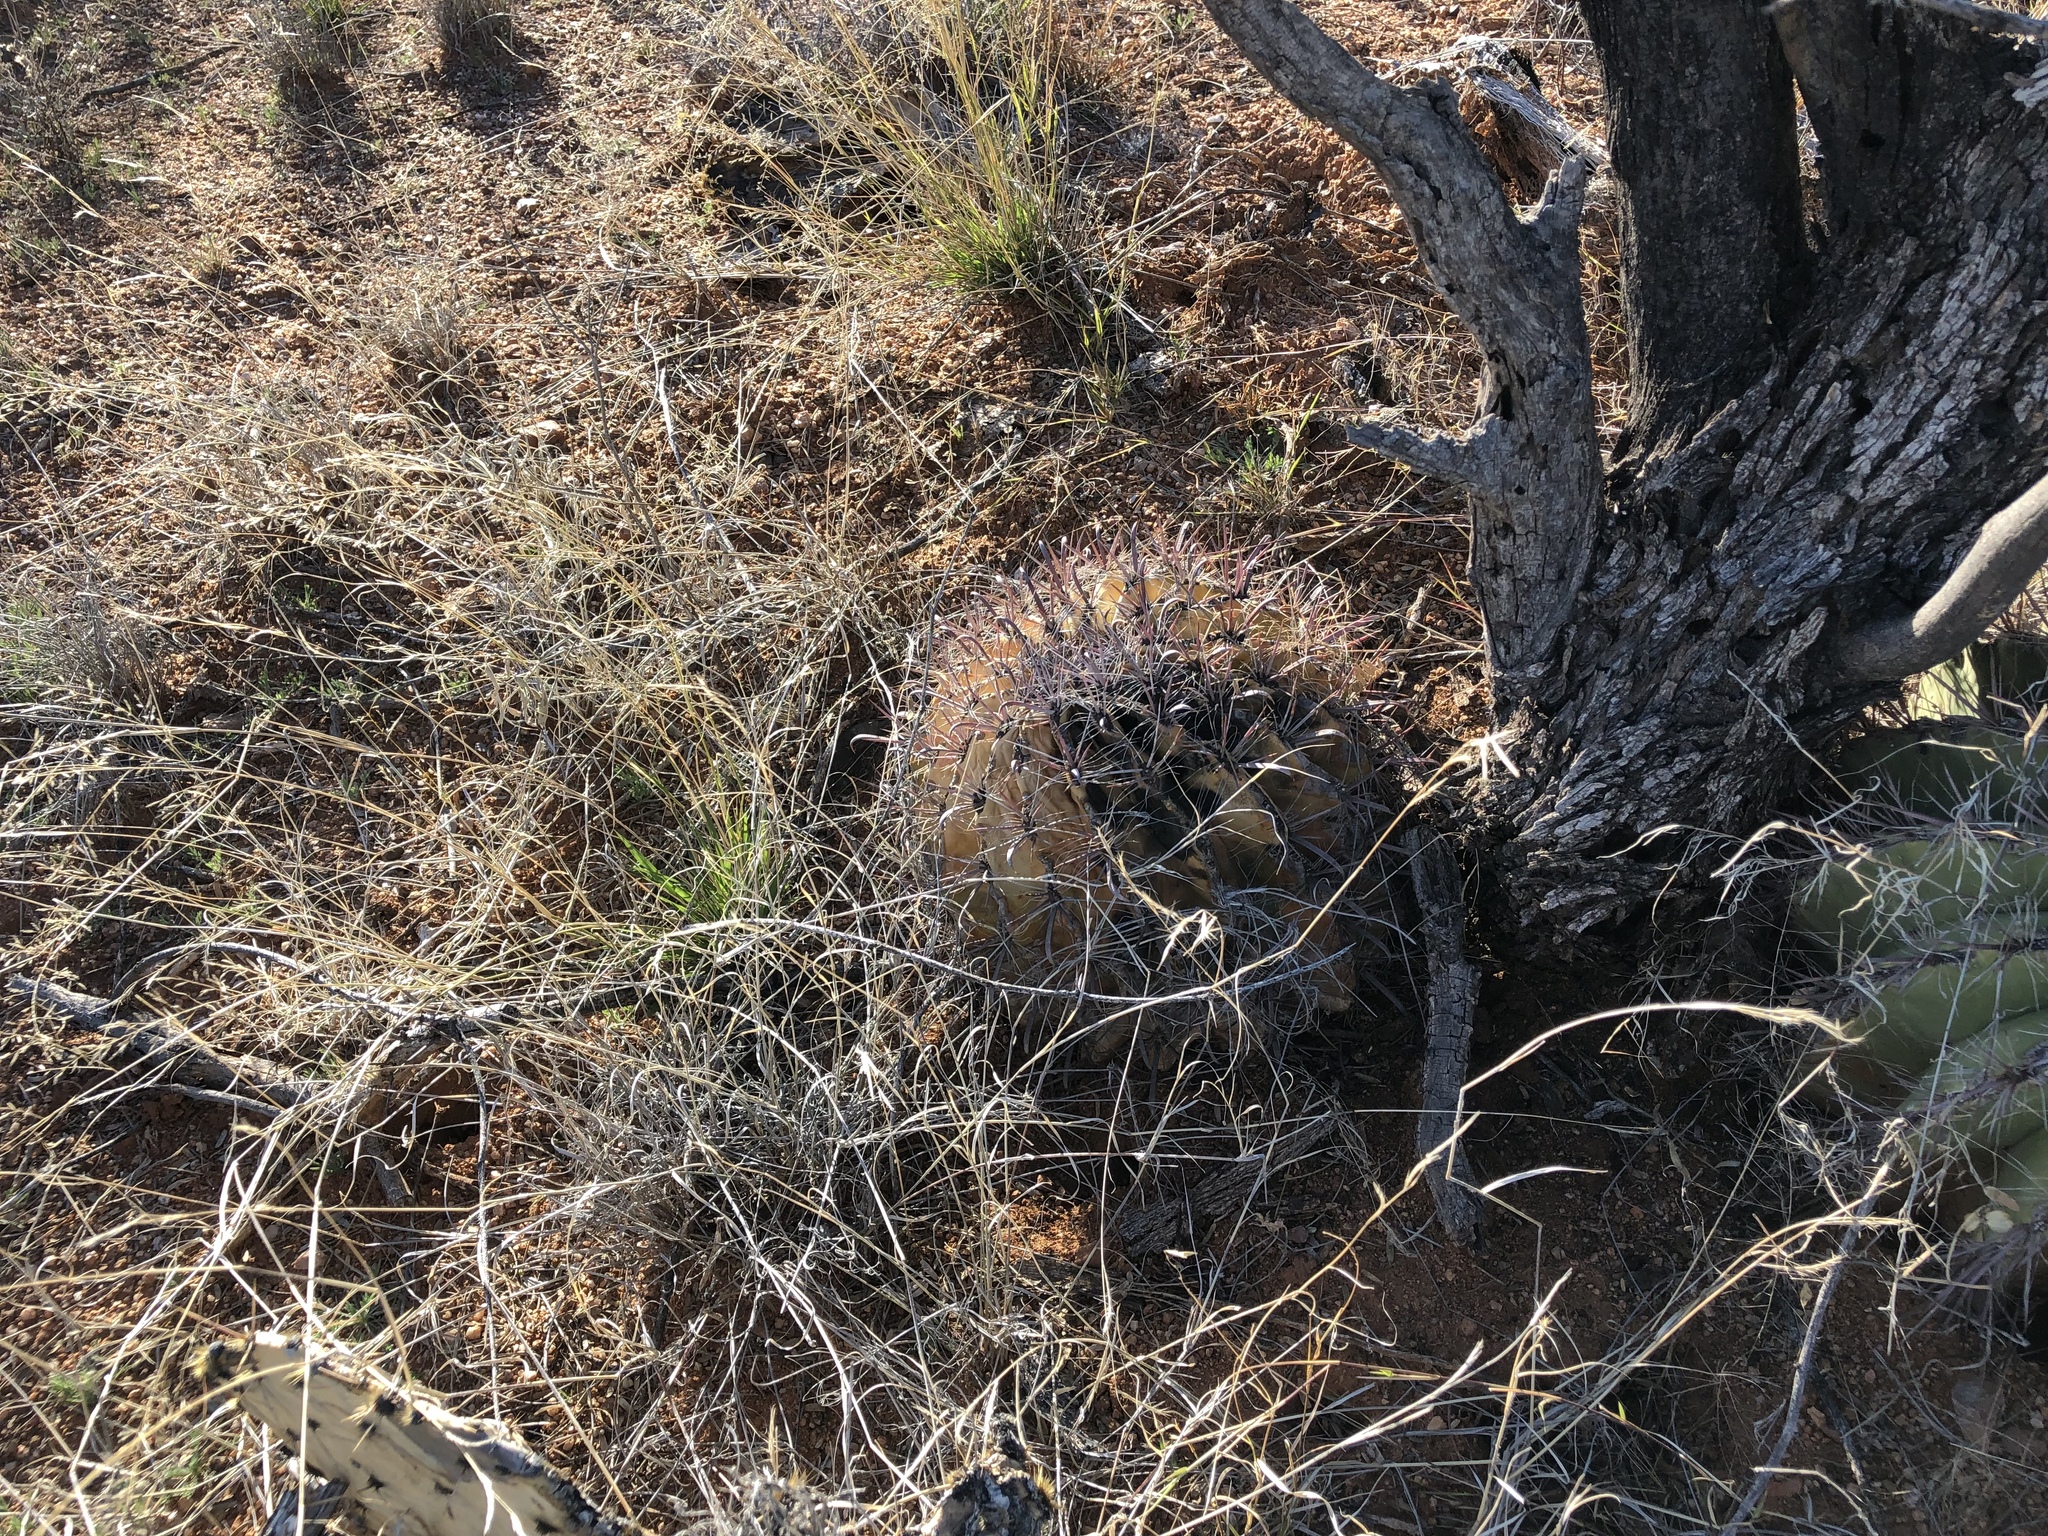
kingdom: Plantae
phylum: Tracheophyta
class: Magnoliopsida
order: Caryophyllales
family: Cactaceae
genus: Ferocactus
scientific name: Ferocactus wislizeni
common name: Candy barrel cactus
